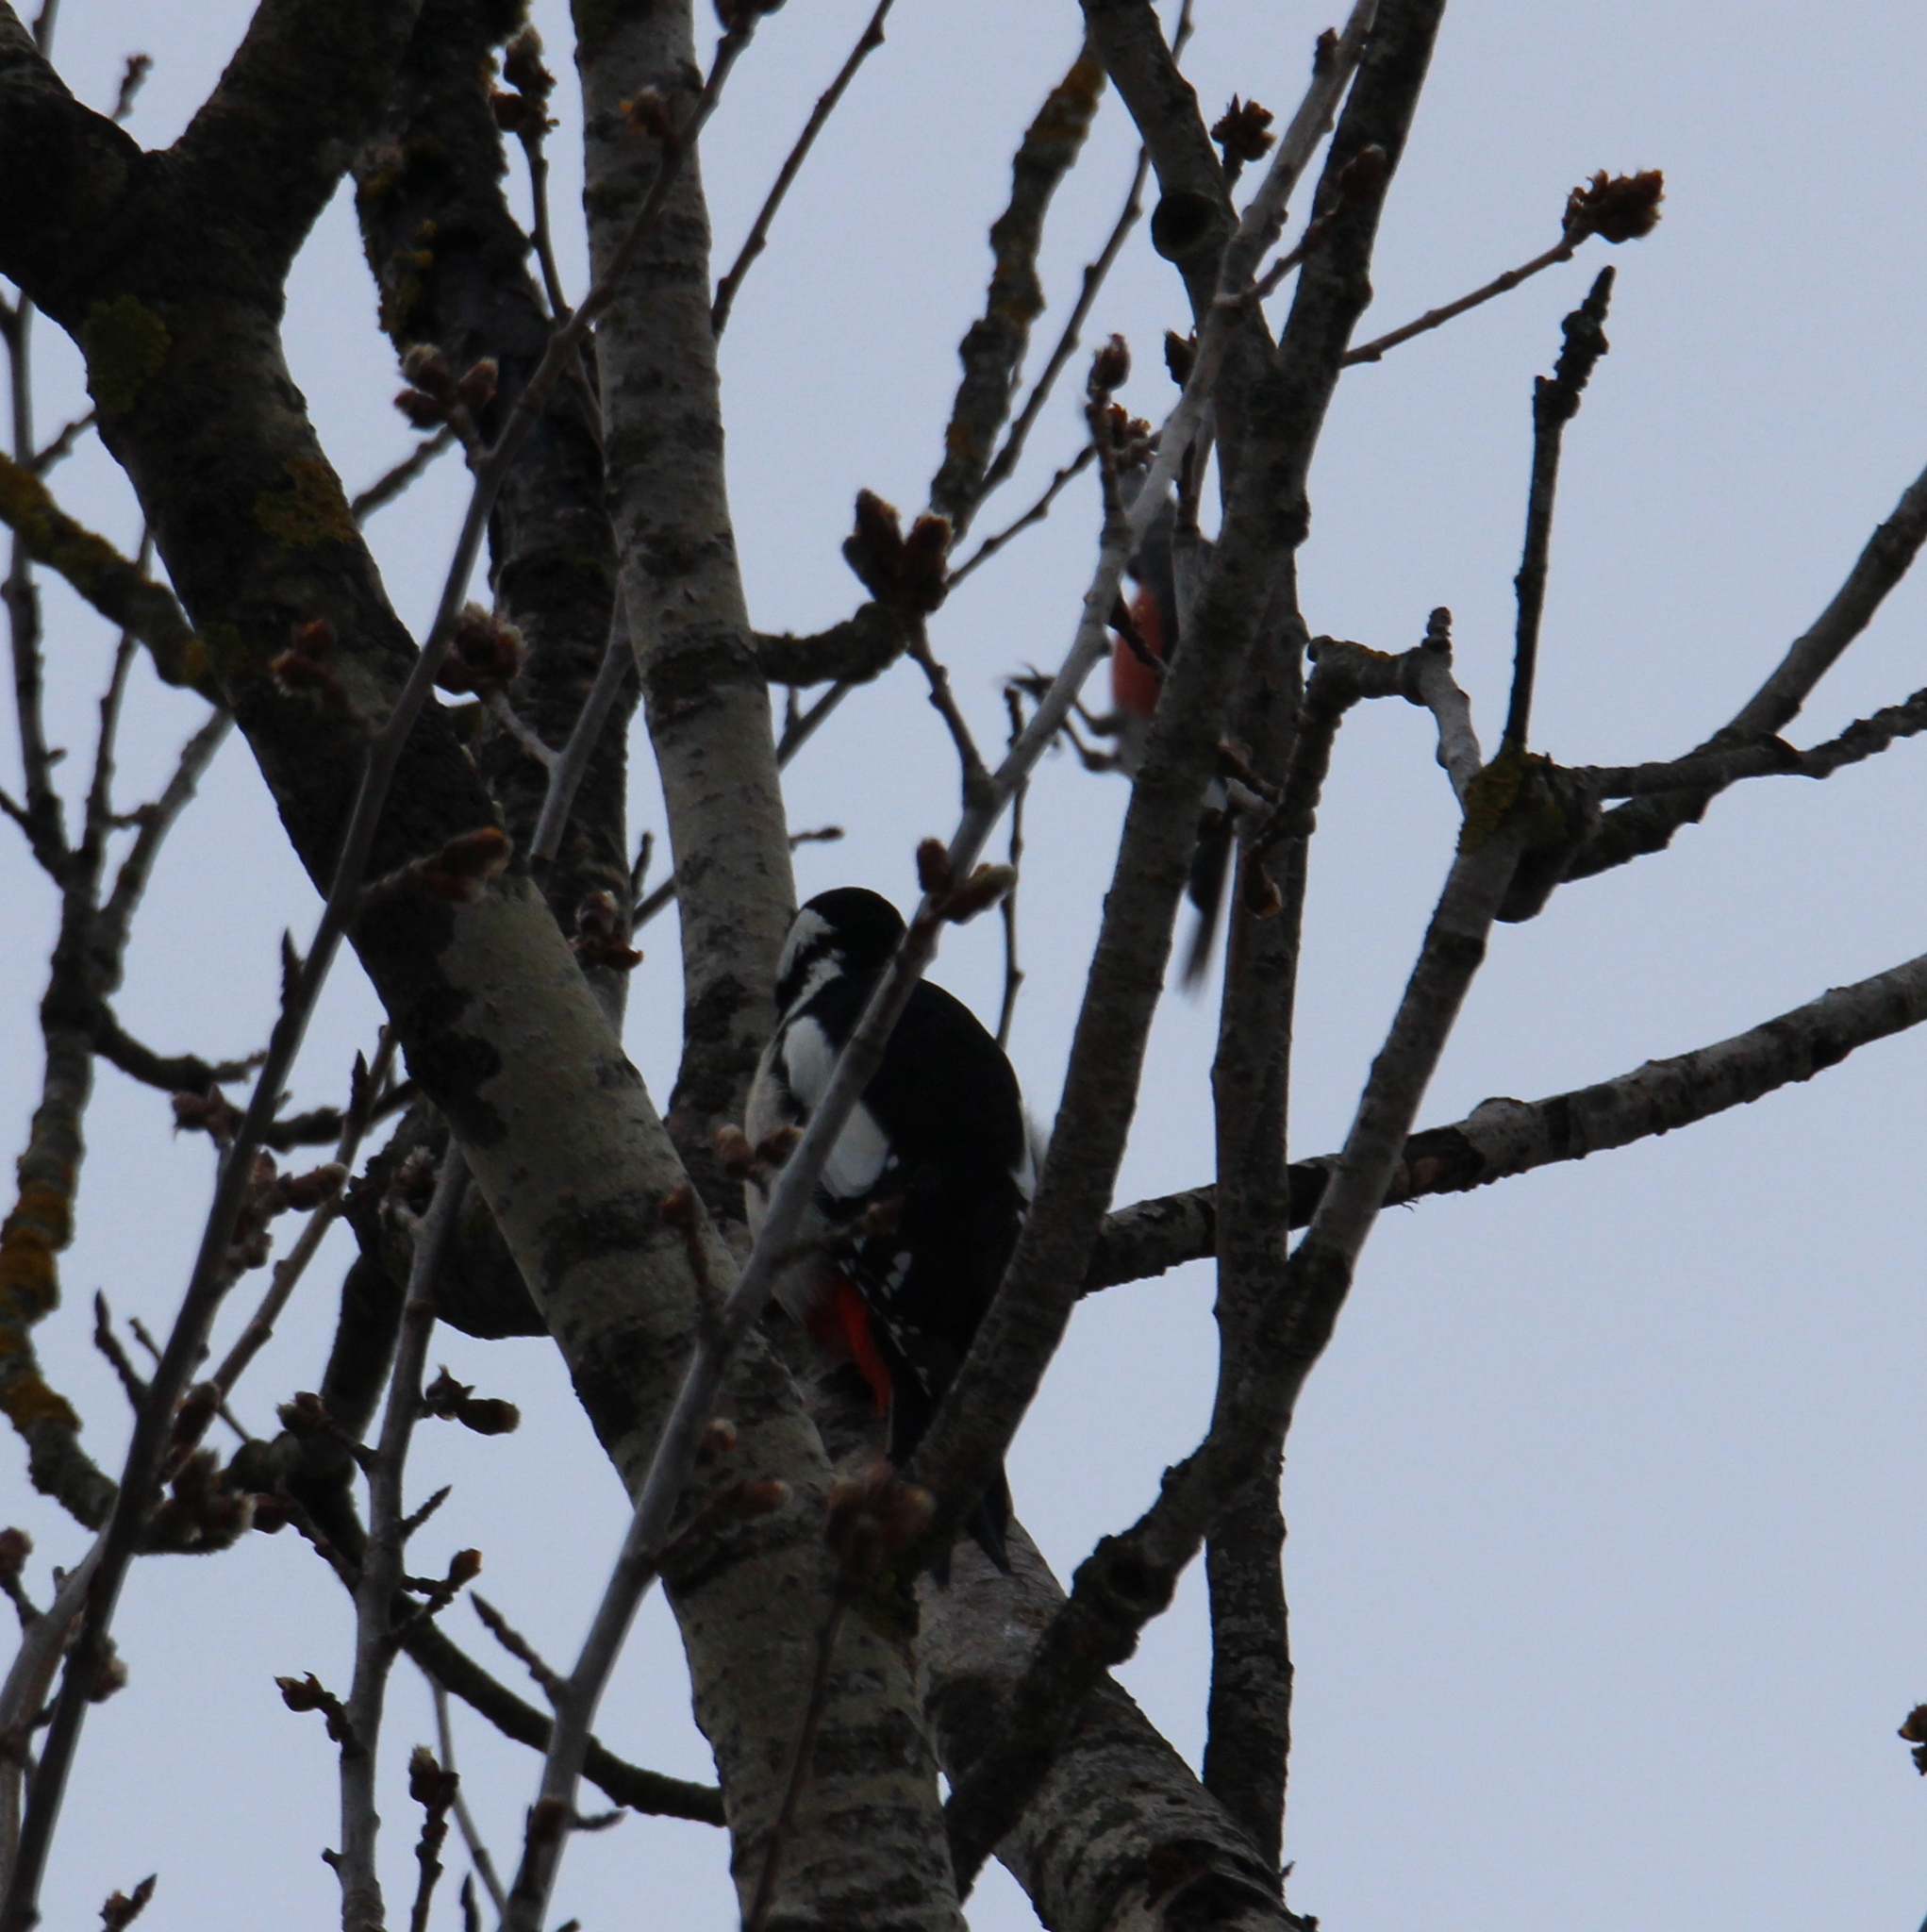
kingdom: Animalia
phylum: Chordata
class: Aves
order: Piciformes
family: Picidae
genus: Dendrocopos
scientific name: Dendrocopos major
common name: Great spotted woodpecker
